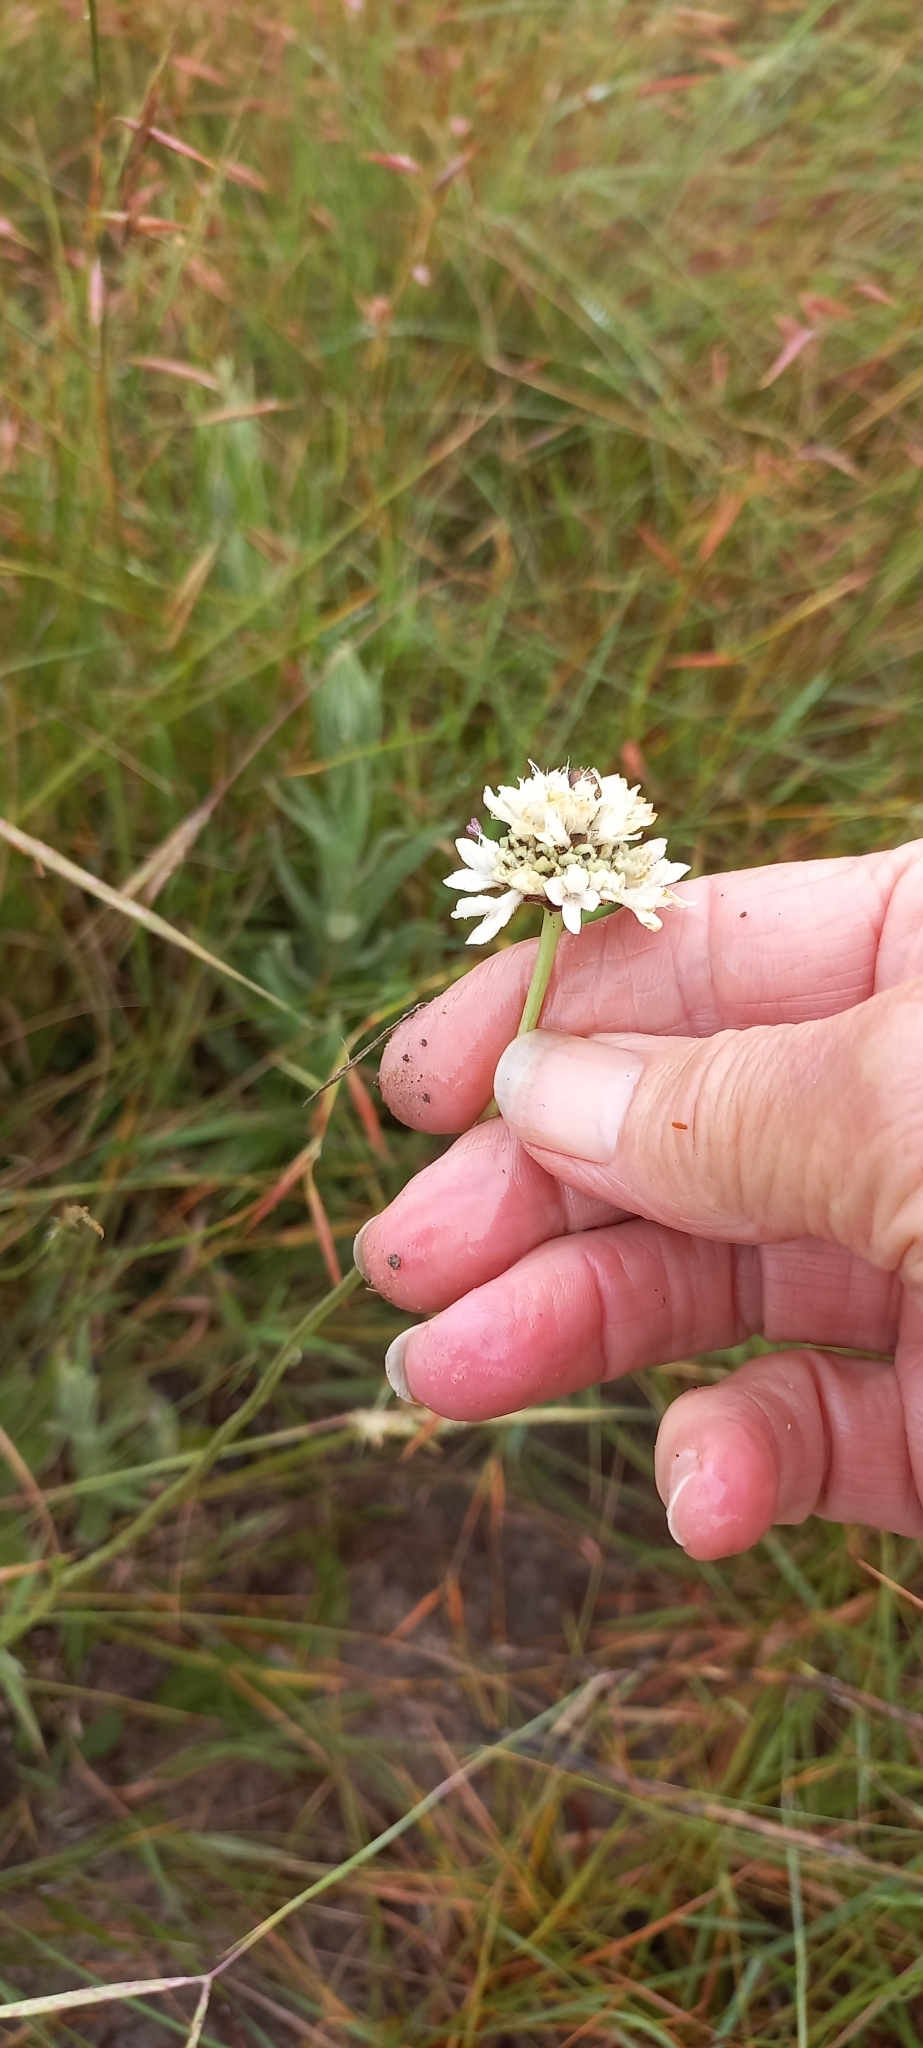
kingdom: Plantae
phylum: Tracheophyta
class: Magnoliopsida
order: Dipsacales
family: Caprifoliaceae
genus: Cephalaria
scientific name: Cephalaria oblongifolia
